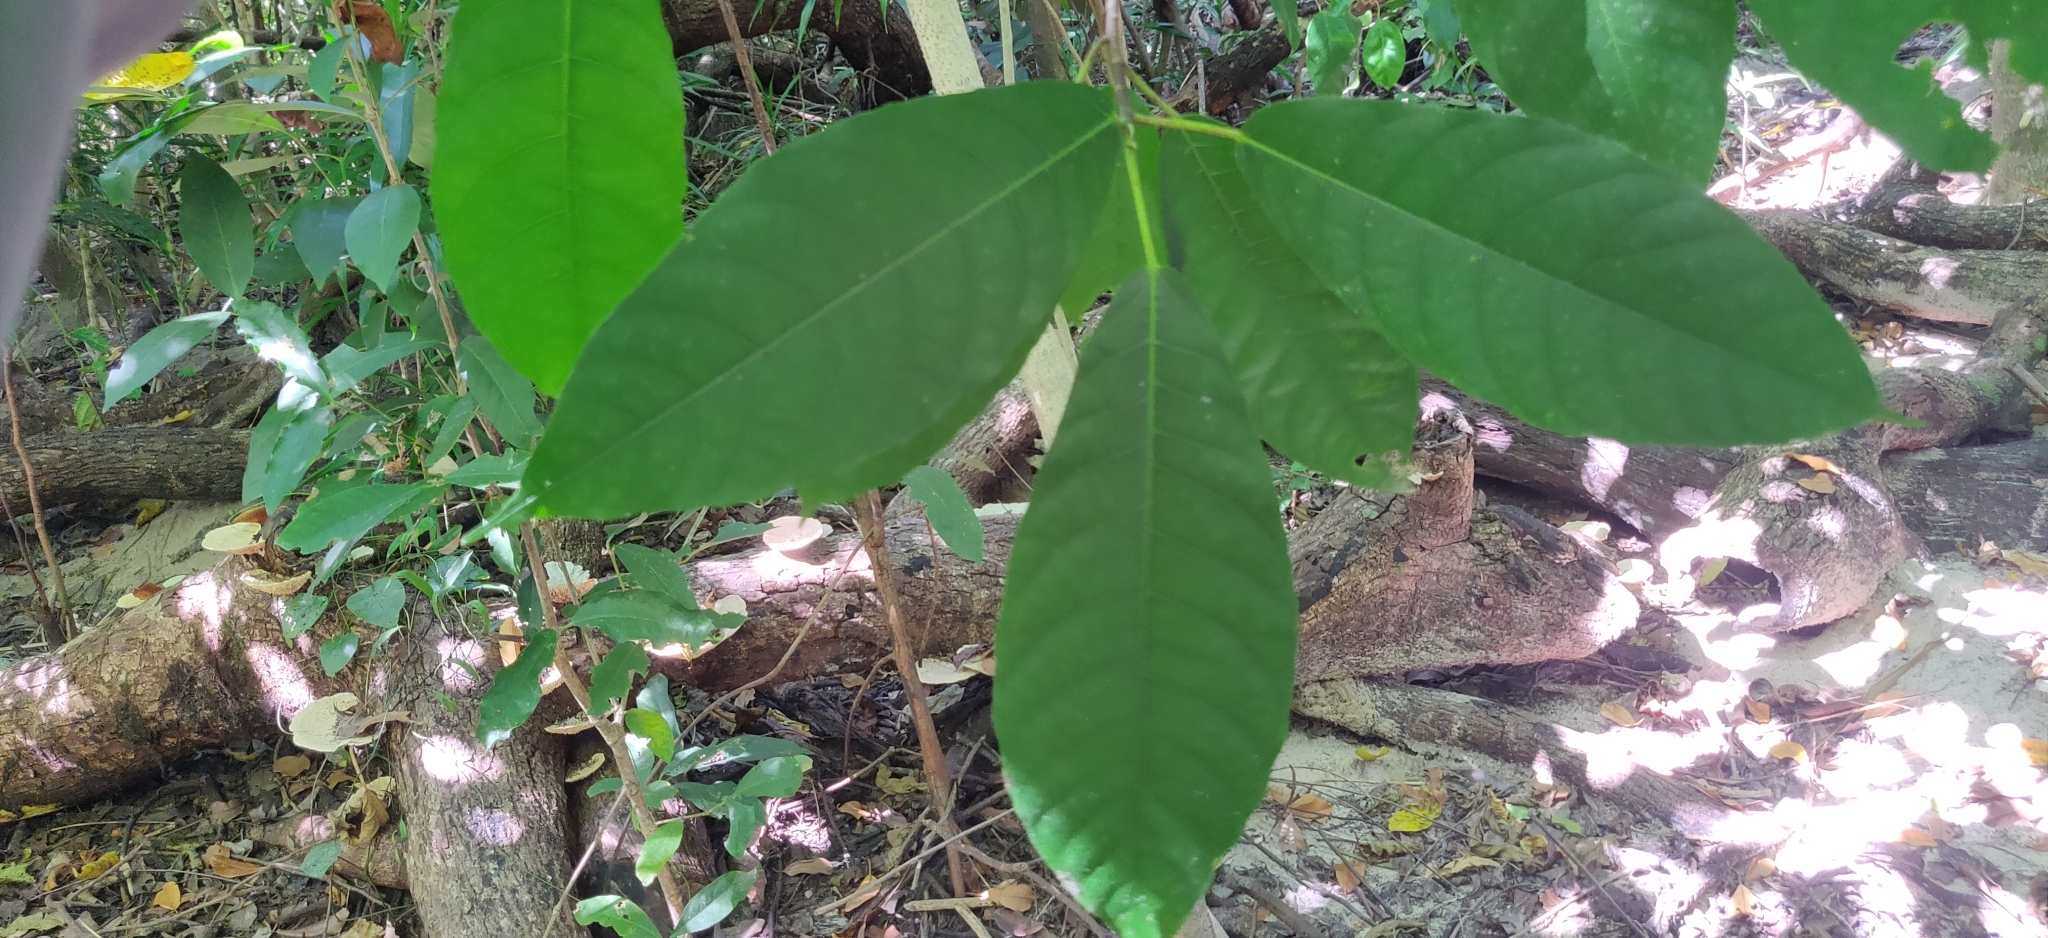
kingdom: Plantae
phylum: Tracheophyta
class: Magnoliopsida
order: Malpighiales
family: Phyllanthaceae
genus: Baccaurea
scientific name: Baccaurea ramiflora
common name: Baccaurea
